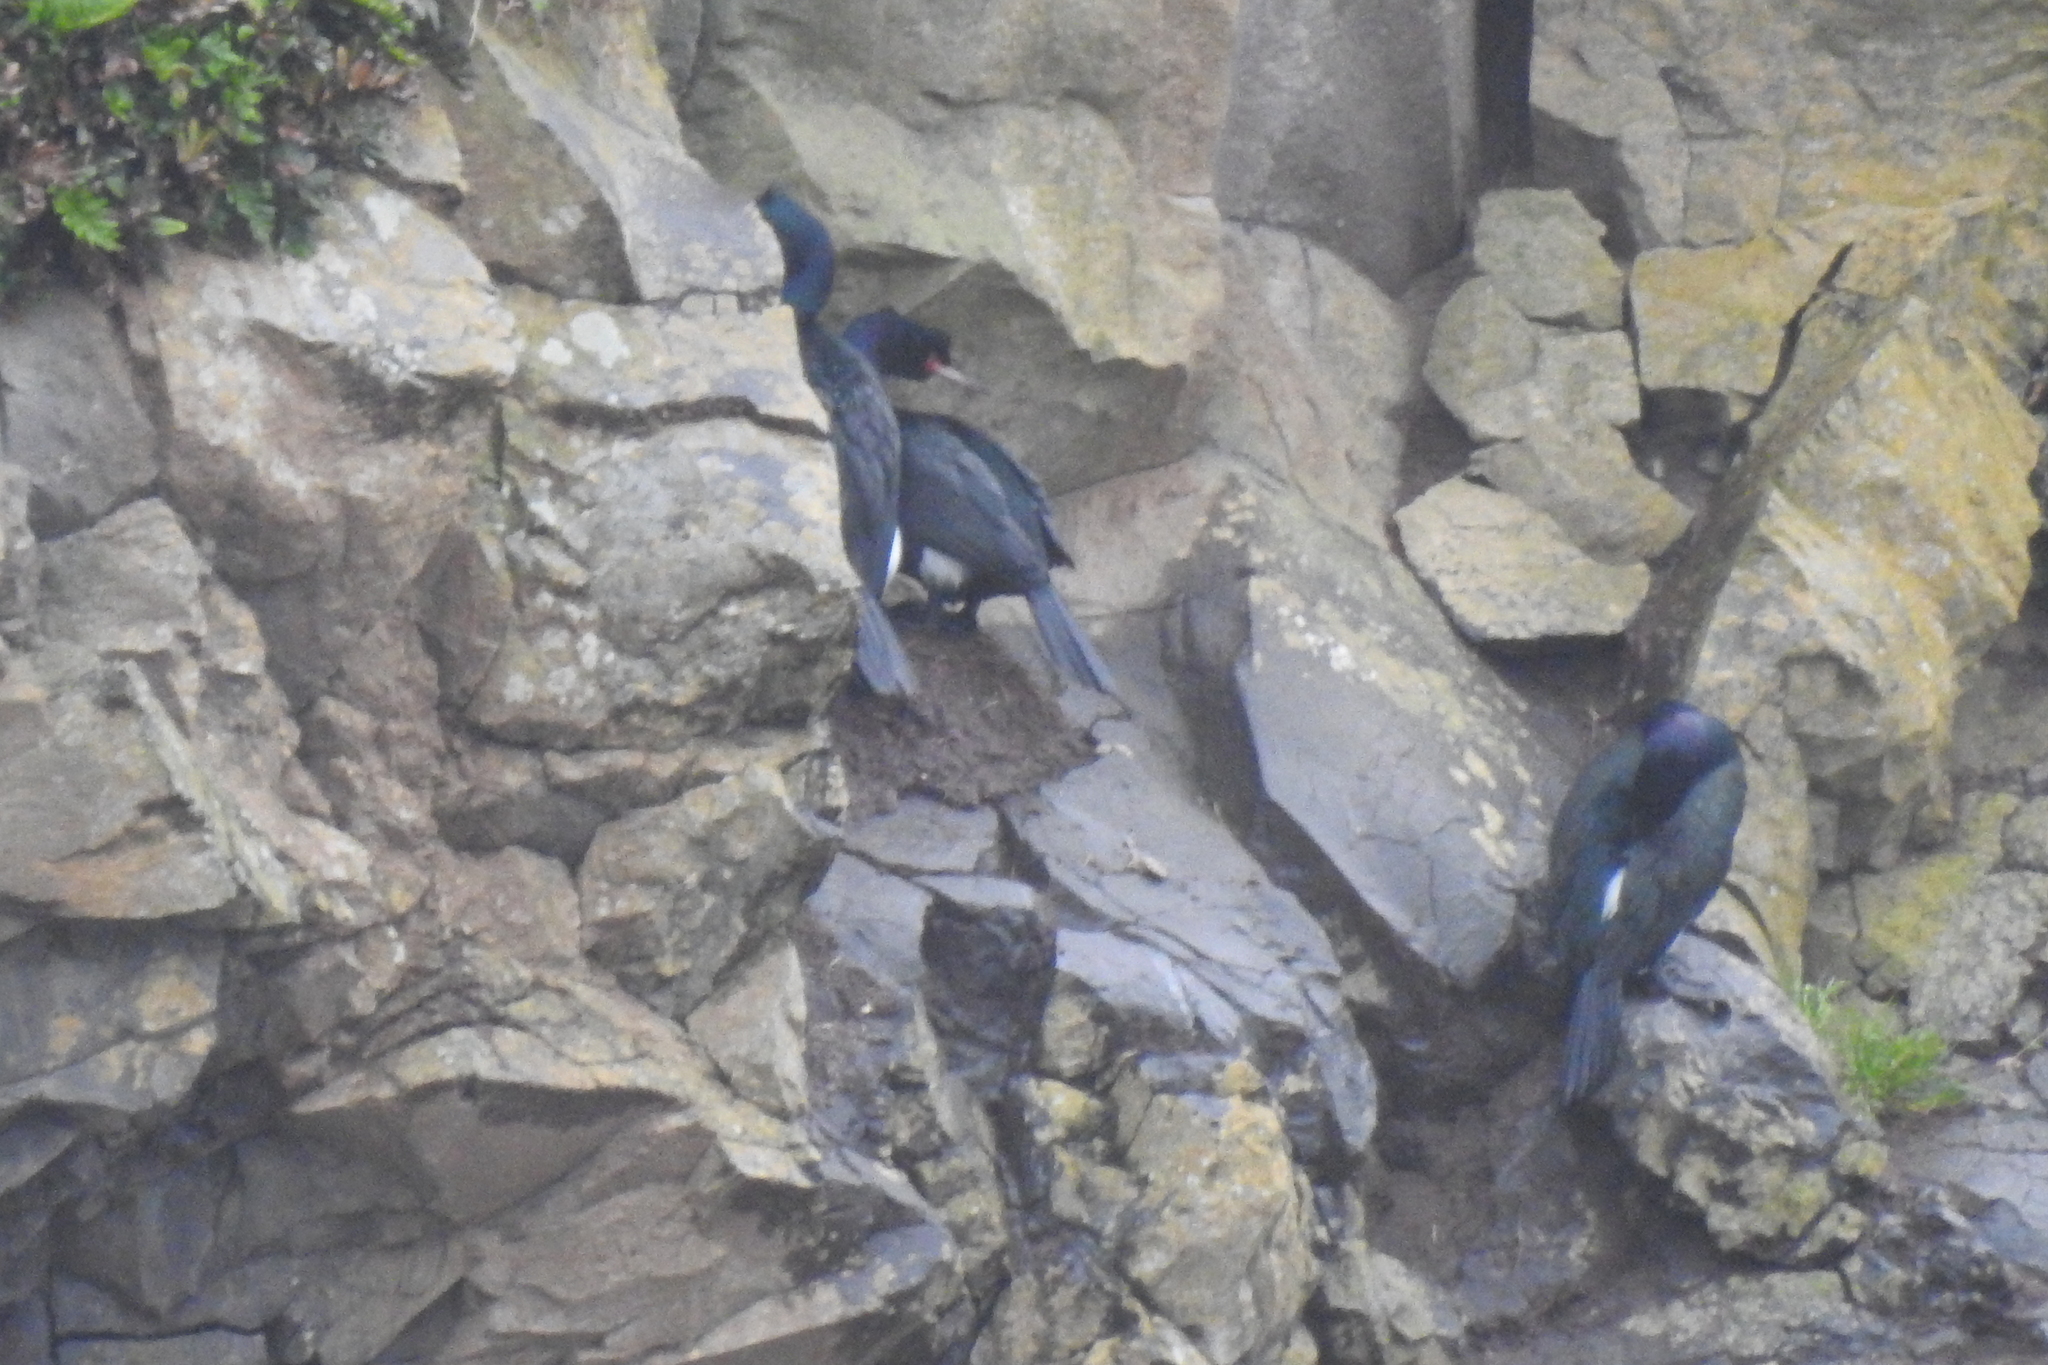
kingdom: Animalia
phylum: Chordata
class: Aves
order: Suliformes
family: Phalacrocoracidae
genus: Phalacrocorax
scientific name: Phalacrocorax pelagicus
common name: Pelagic cormorant
